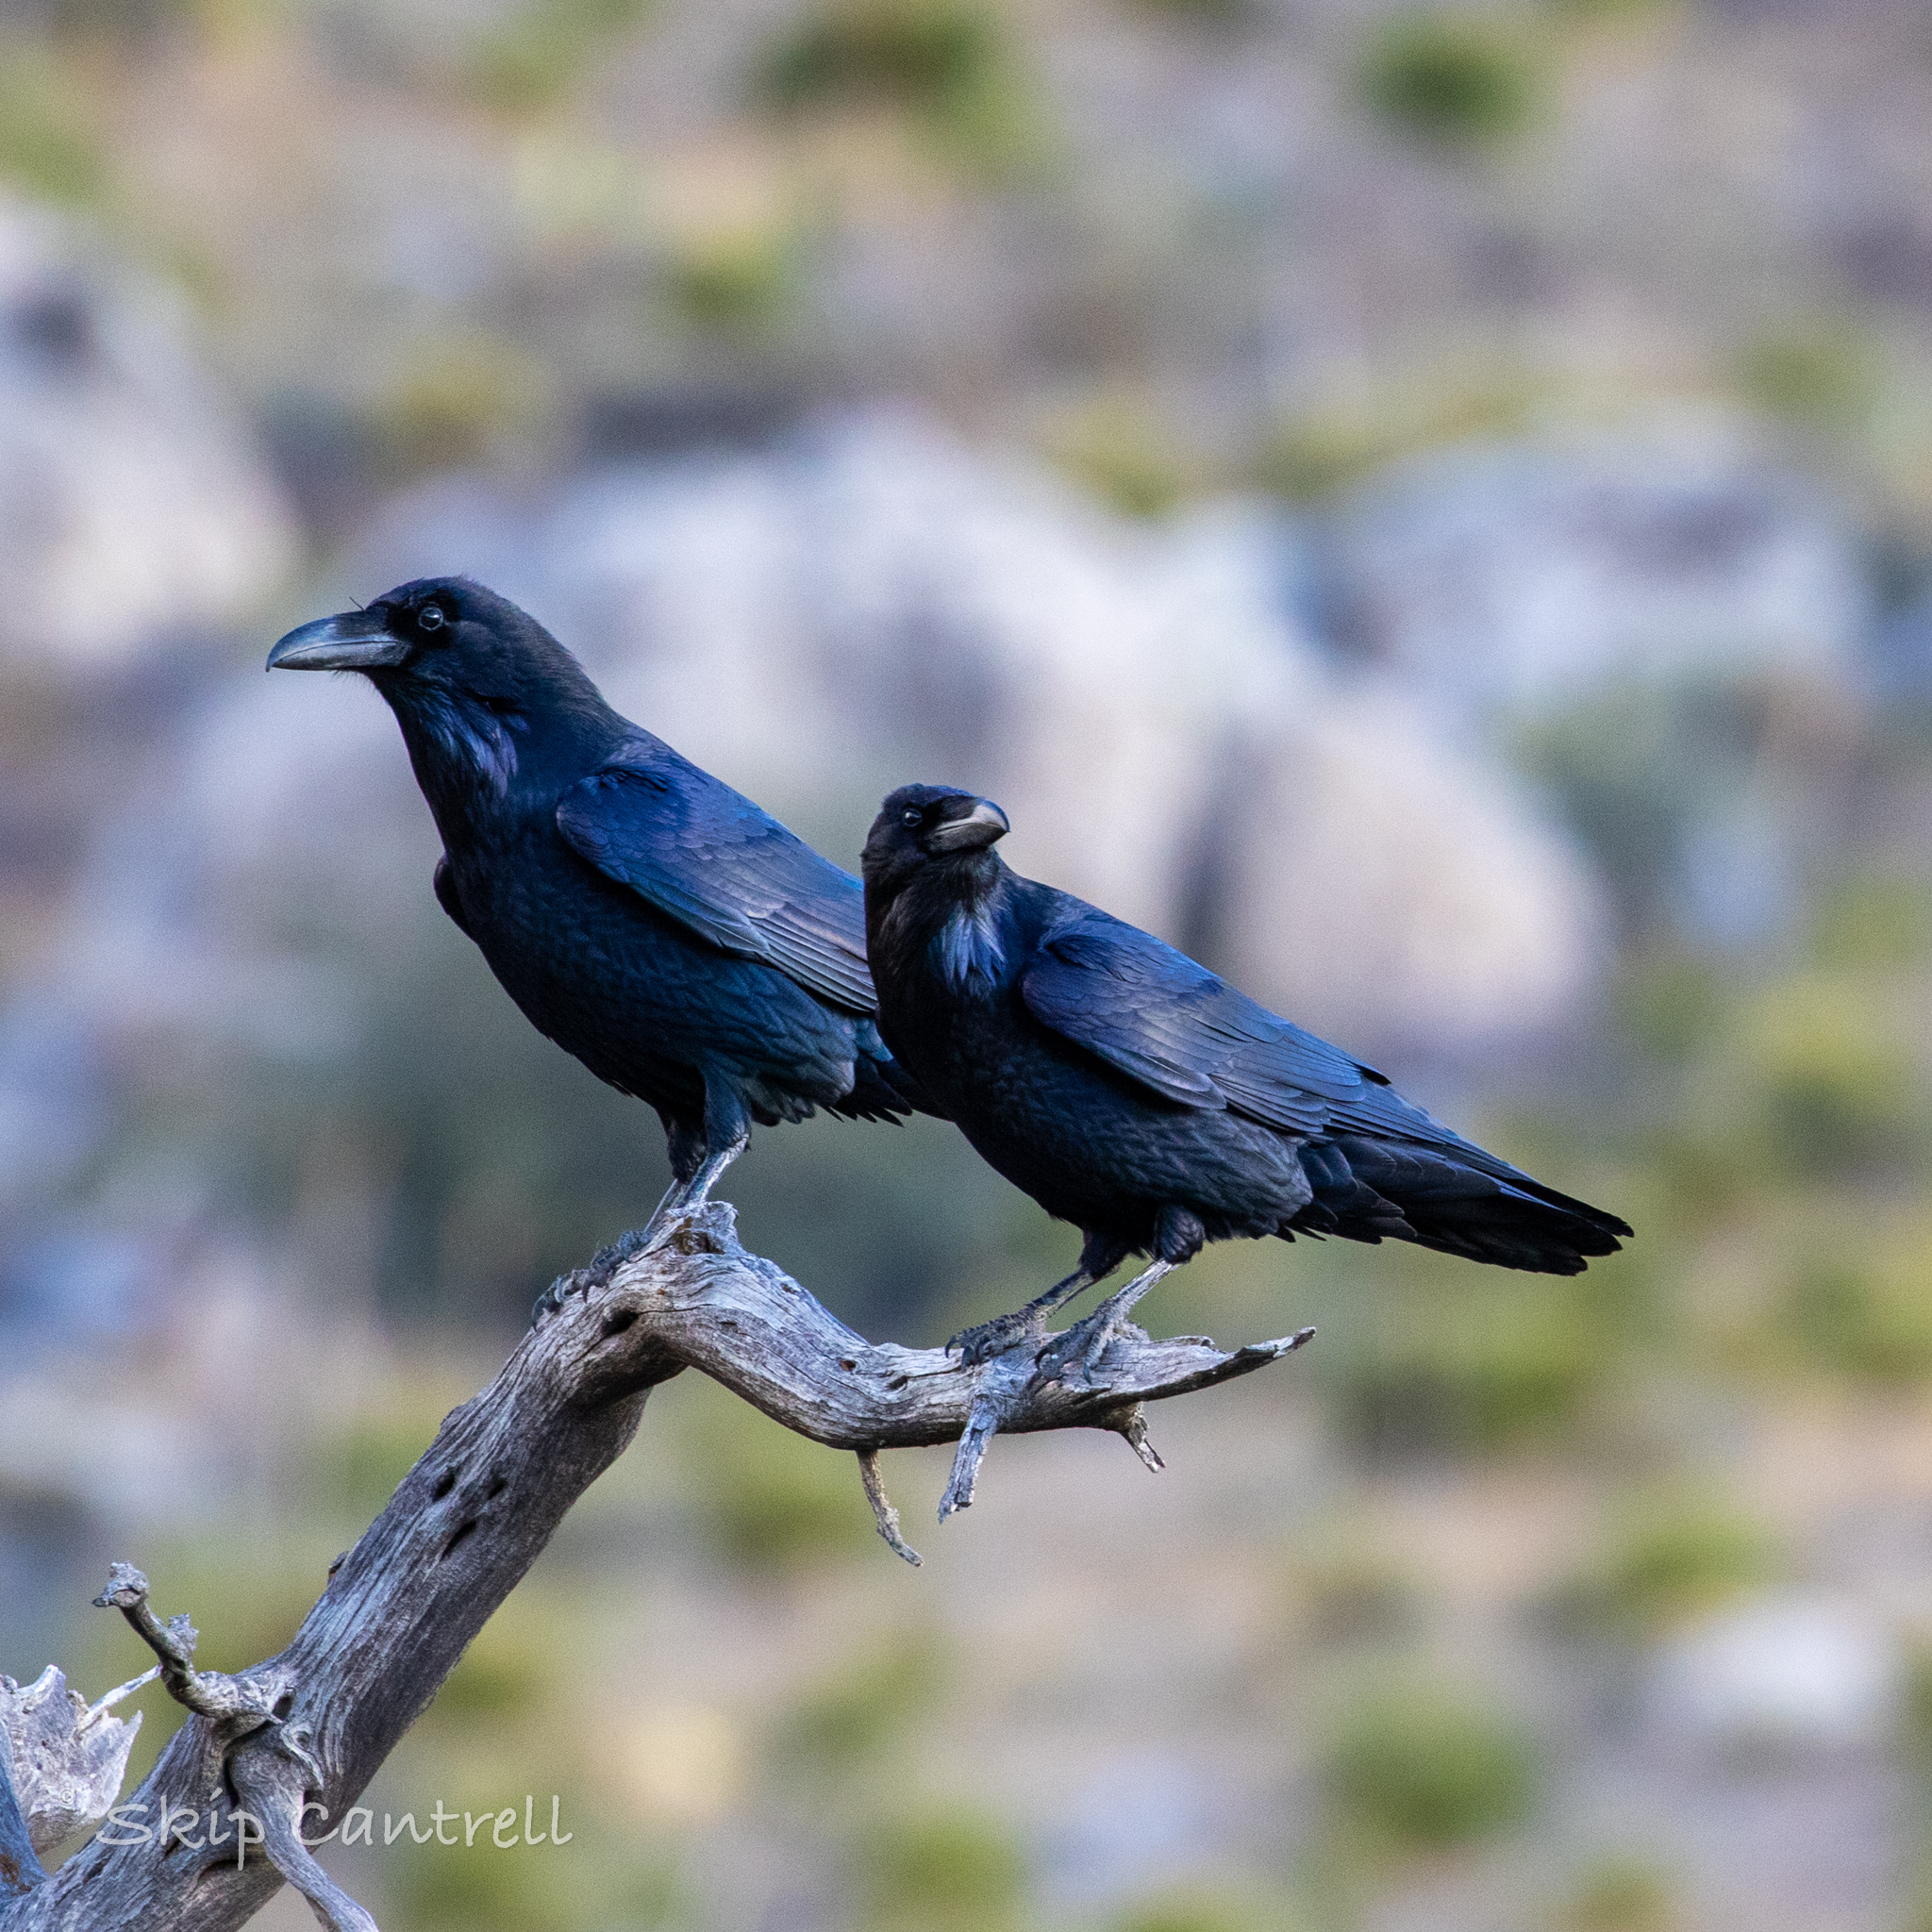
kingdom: Animalia
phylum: Chordata
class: Aves
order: Passeriformes
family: Corvidae
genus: Corvus
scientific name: Corvus corax
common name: Common raven
